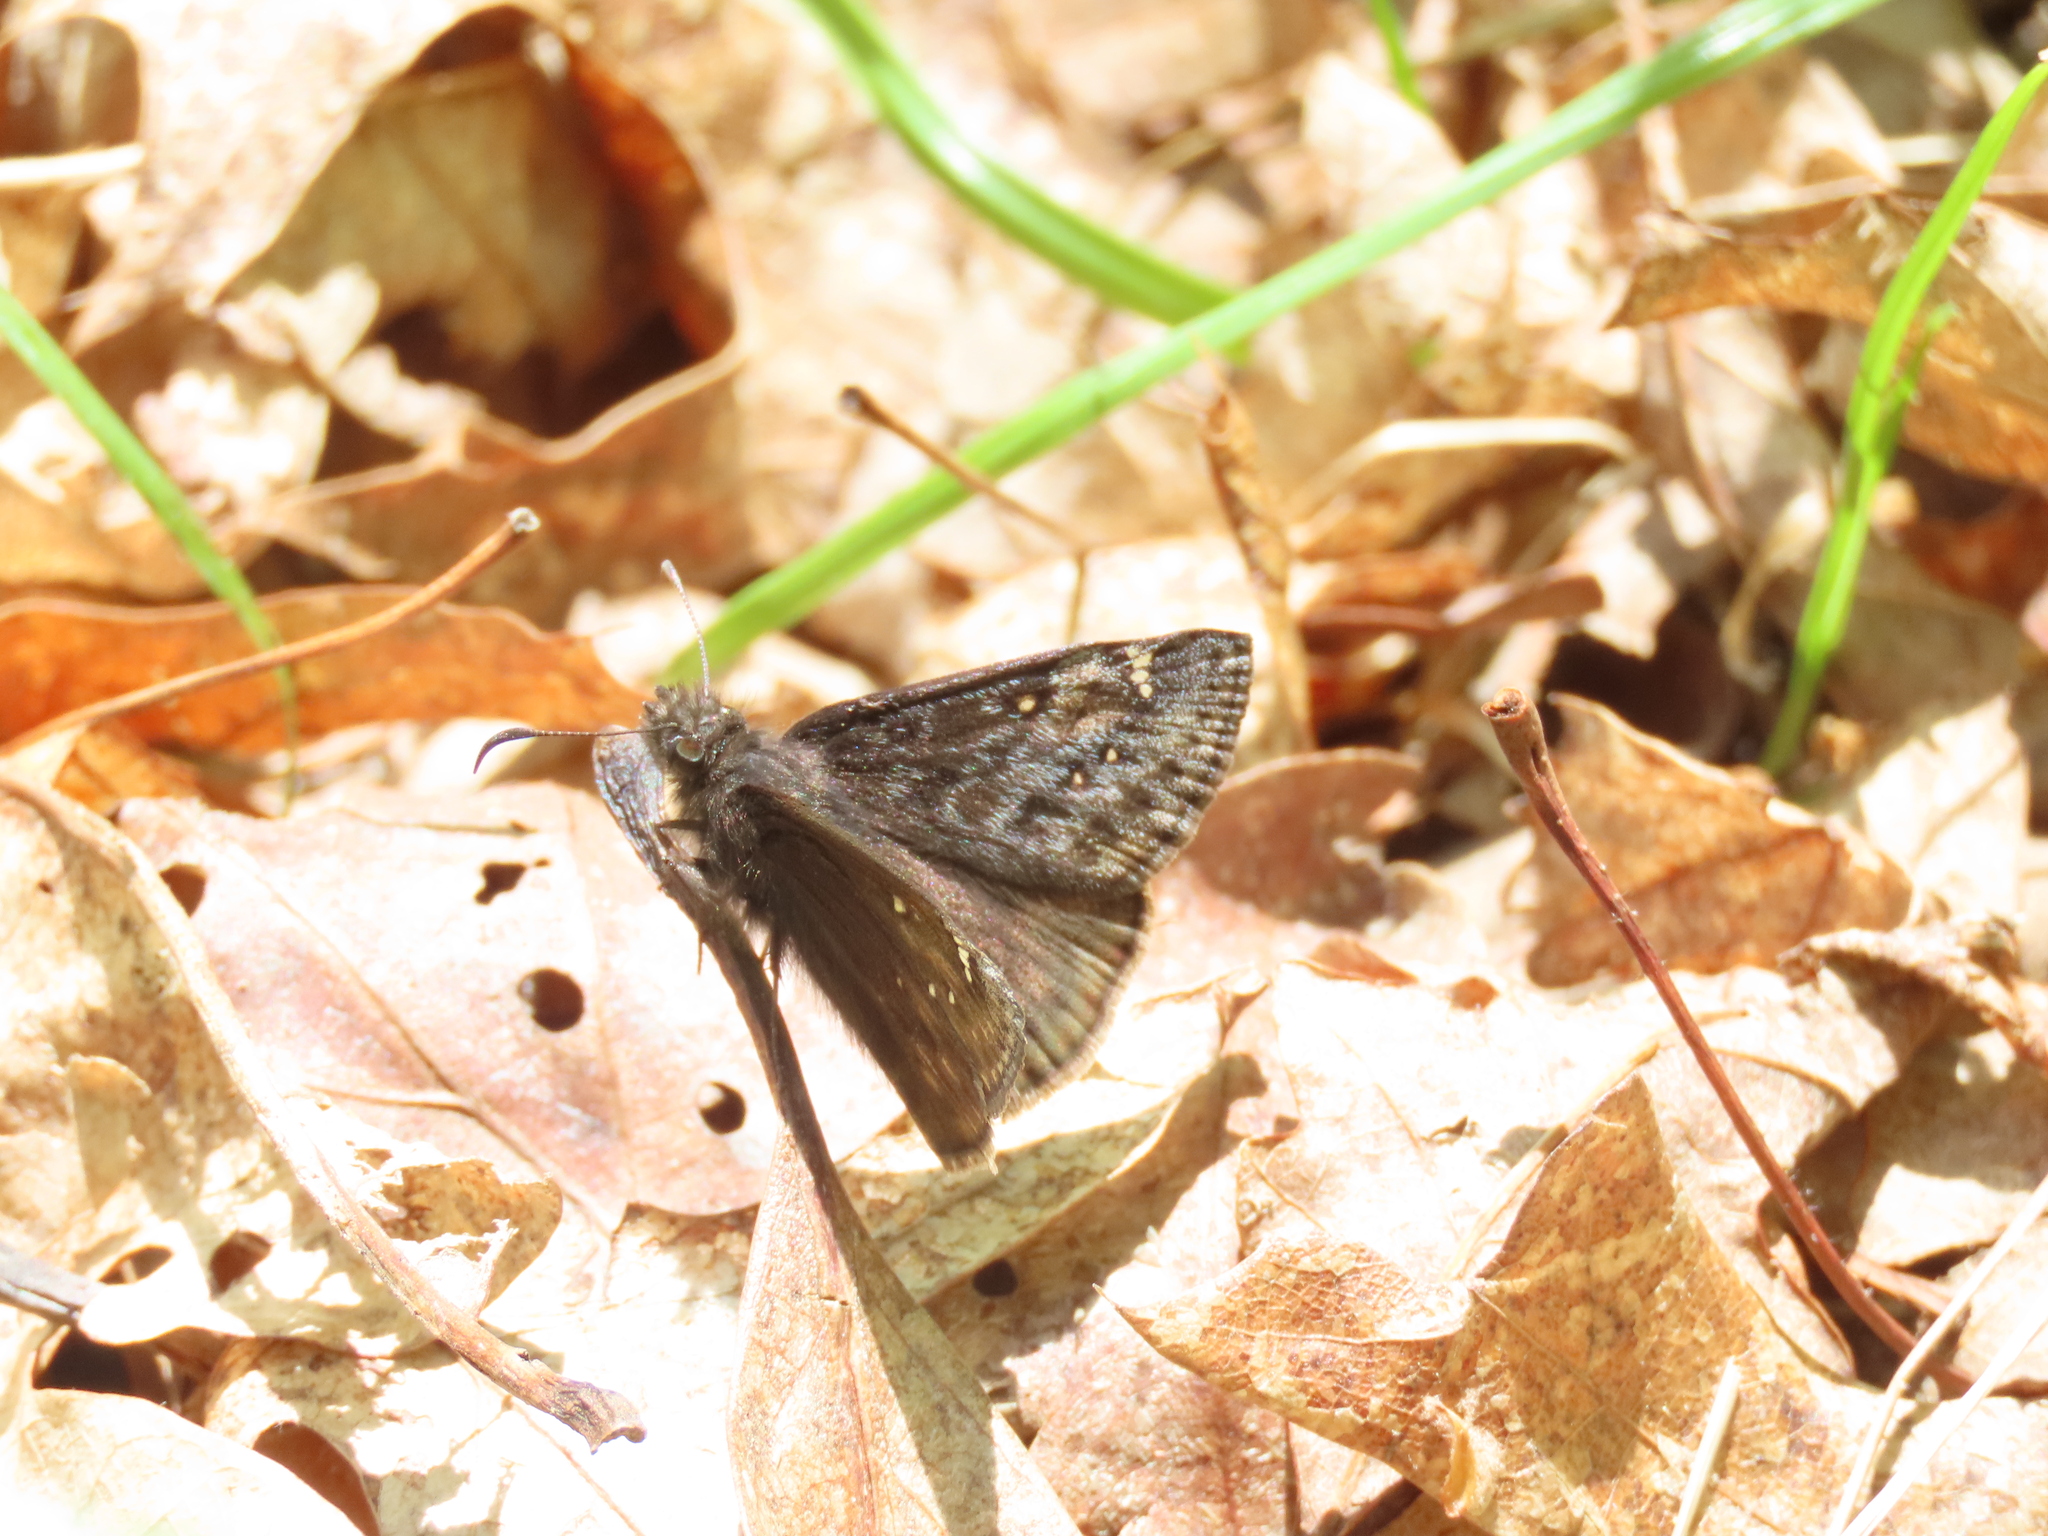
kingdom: Animalia
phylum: Arthropoda
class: Insecta
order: Lepidoptera
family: Hesperiidae
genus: Erynnis
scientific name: Erynnis juvenalis
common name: Juvenal's duskywing
